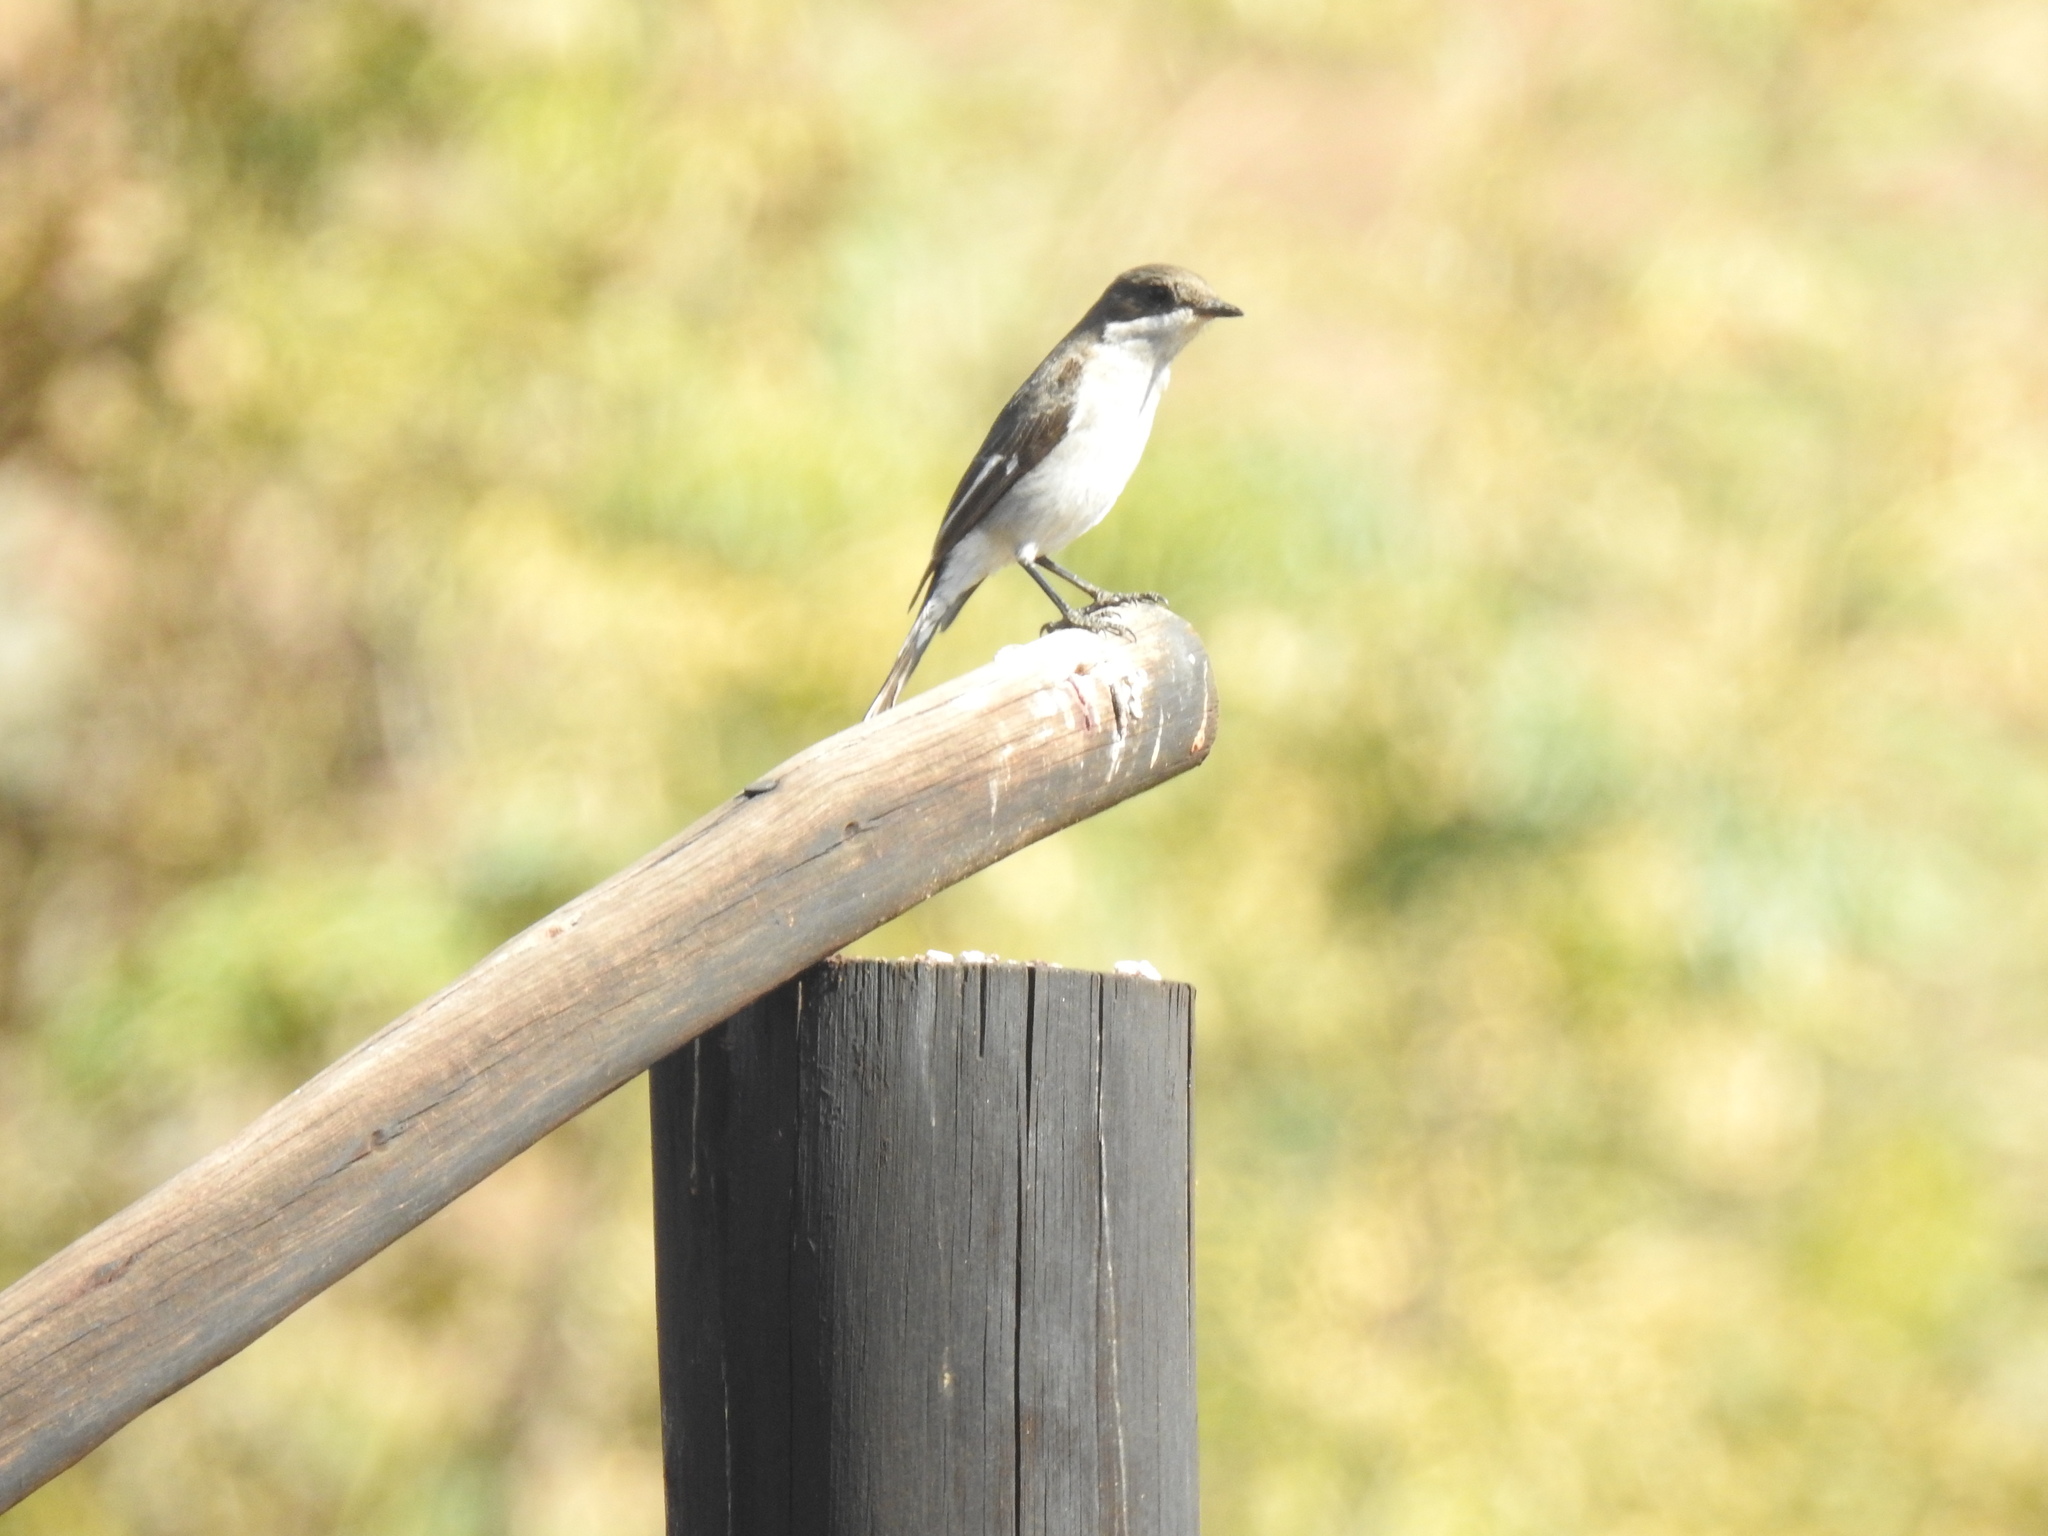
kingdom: Animalia
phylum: Chordata
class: Aves
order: Passeriformes
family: Muscicapidae
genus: Sigelus
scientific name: Sigelus silens
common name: Fiscal flycatcher
